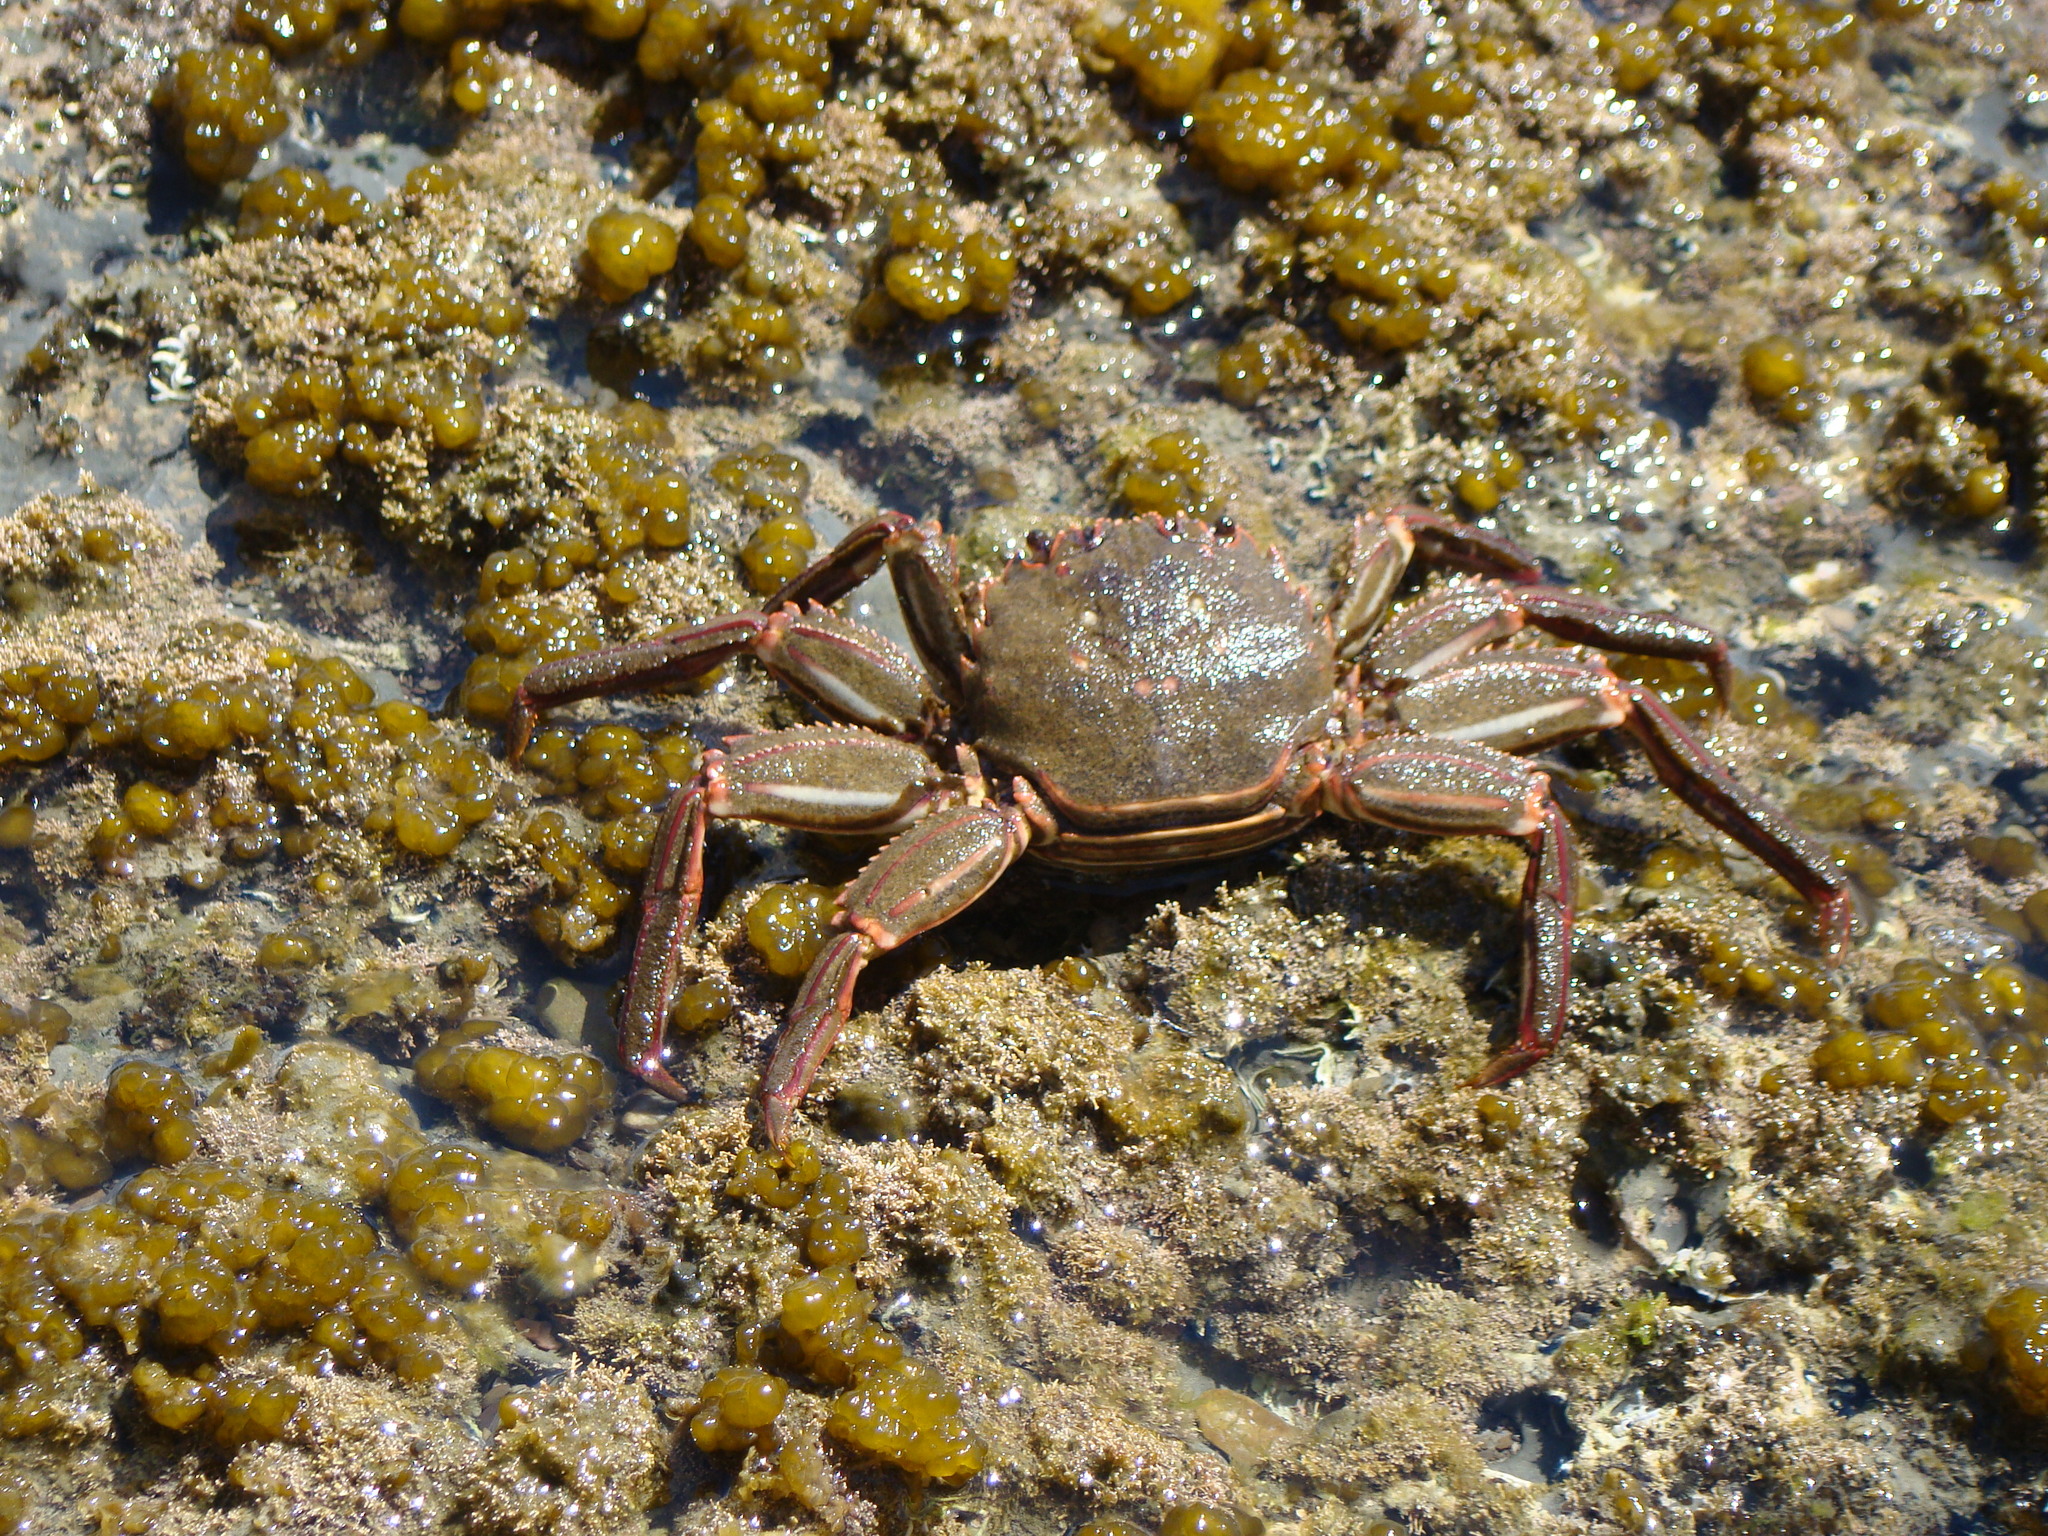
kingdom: Animalia
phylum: Arthropoda
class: Malacostraca
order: Decapoda
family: Plagusiidae
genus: Guinusia
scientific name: Guinusia chabrus
